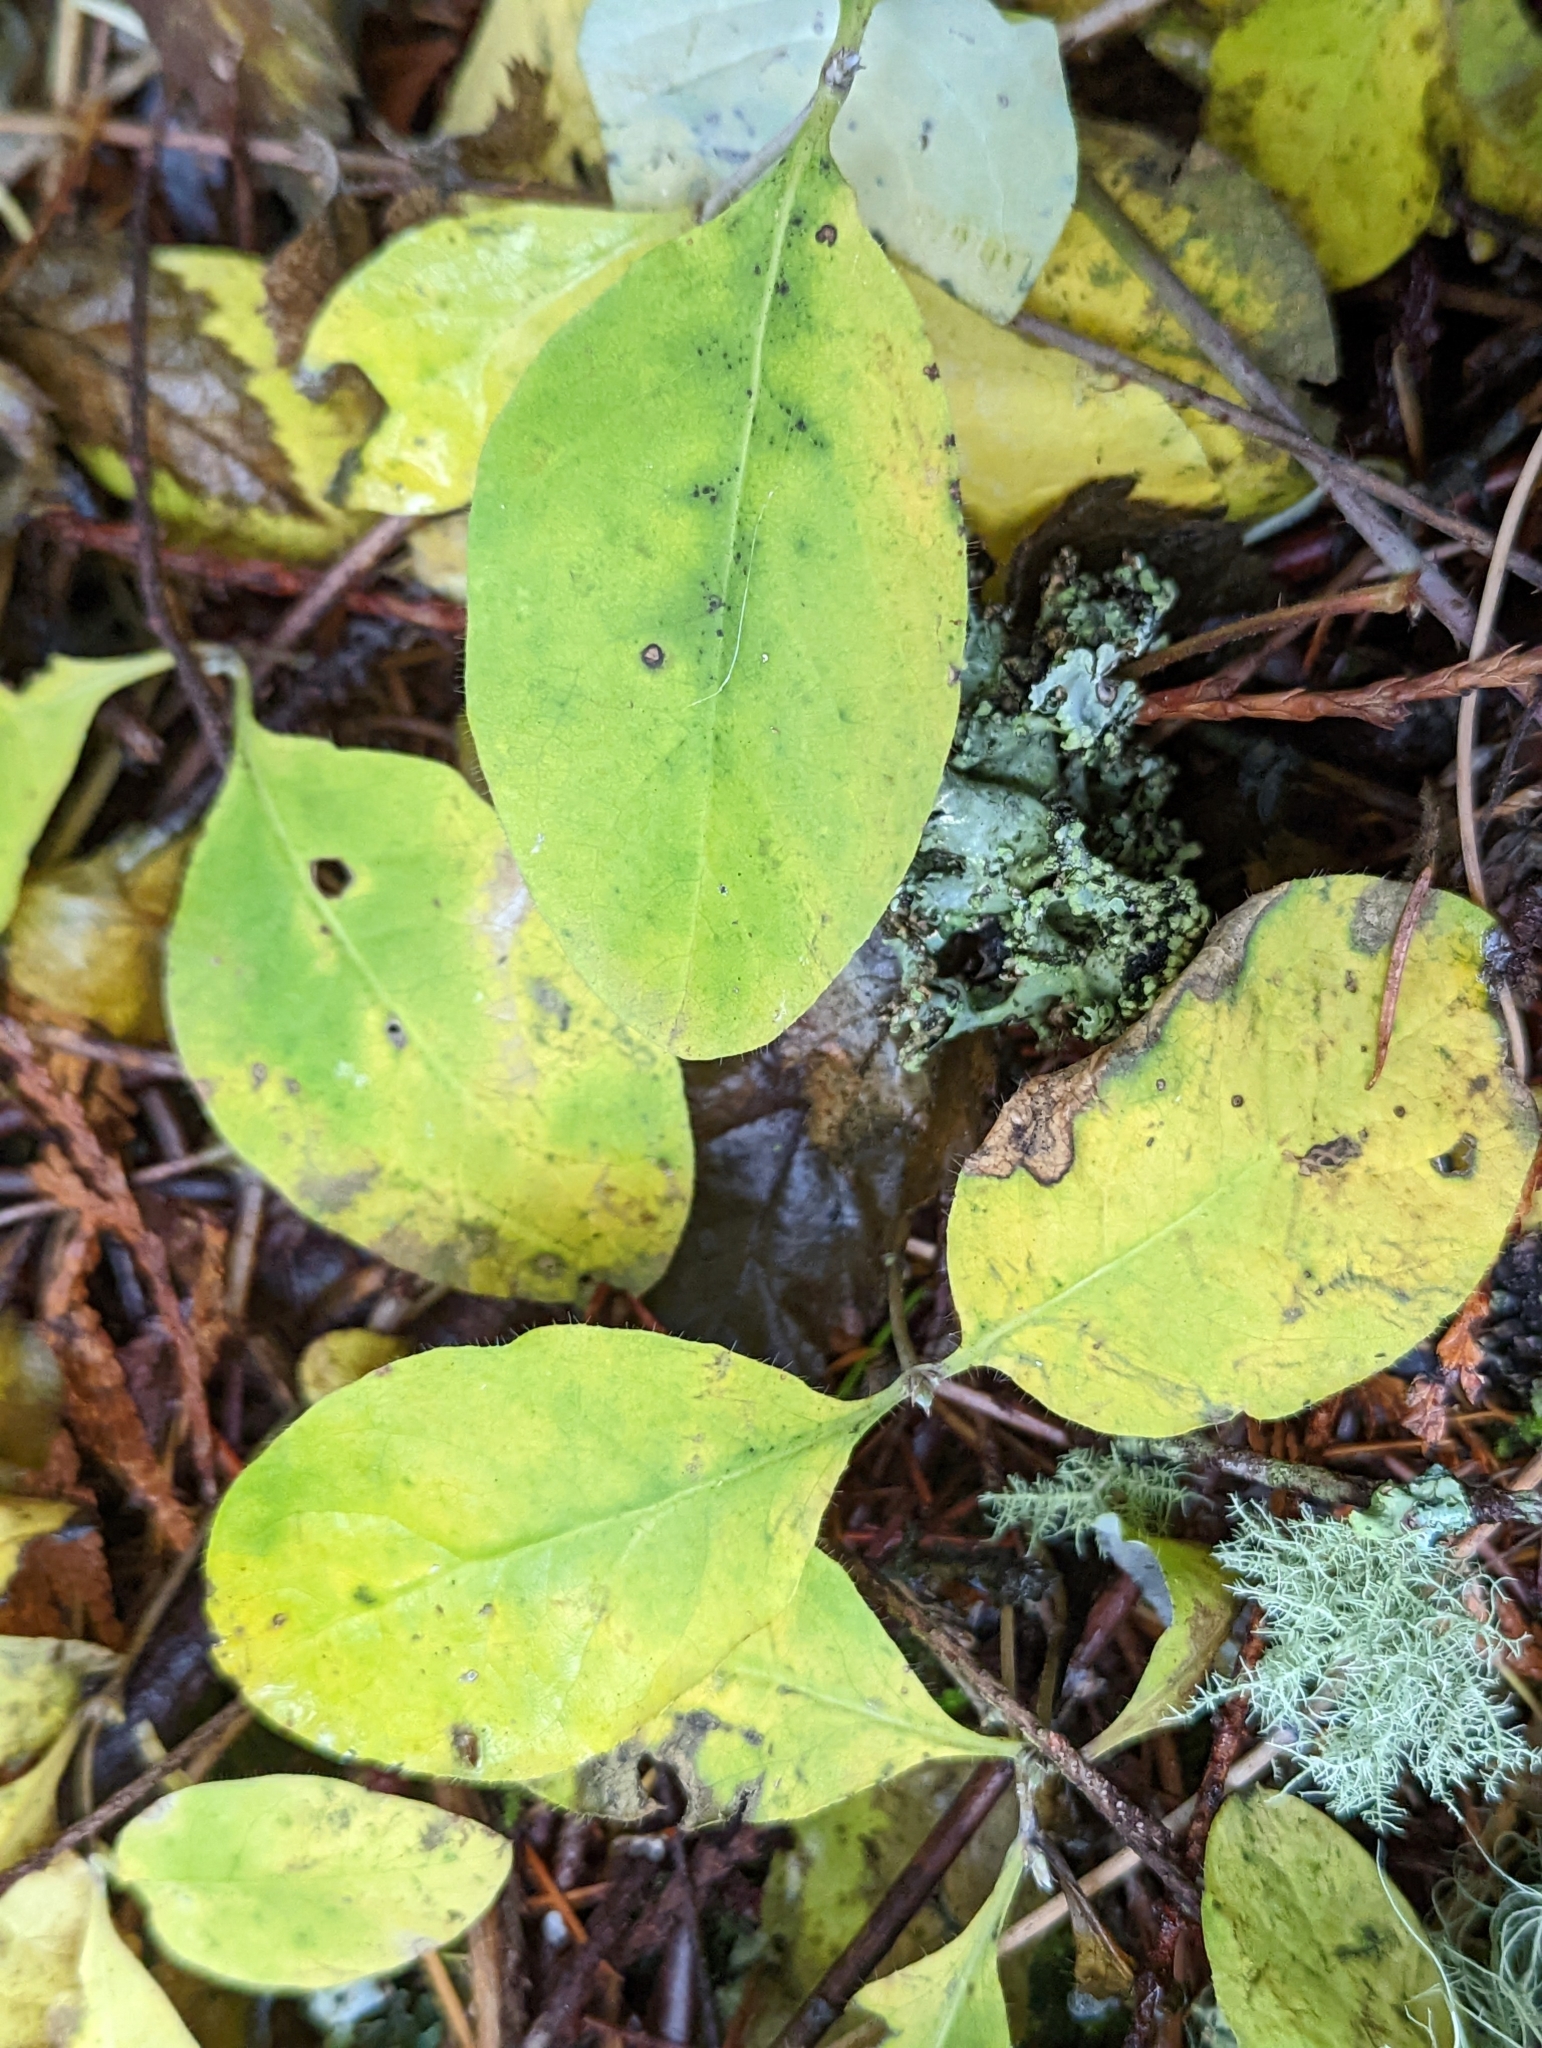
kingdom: Plantae
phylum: Tracheophyta
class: Magnoliopsida
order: Dipsacales
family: Caprifoliaceae
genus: Lonicera
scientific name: Lonicera ciliosa
